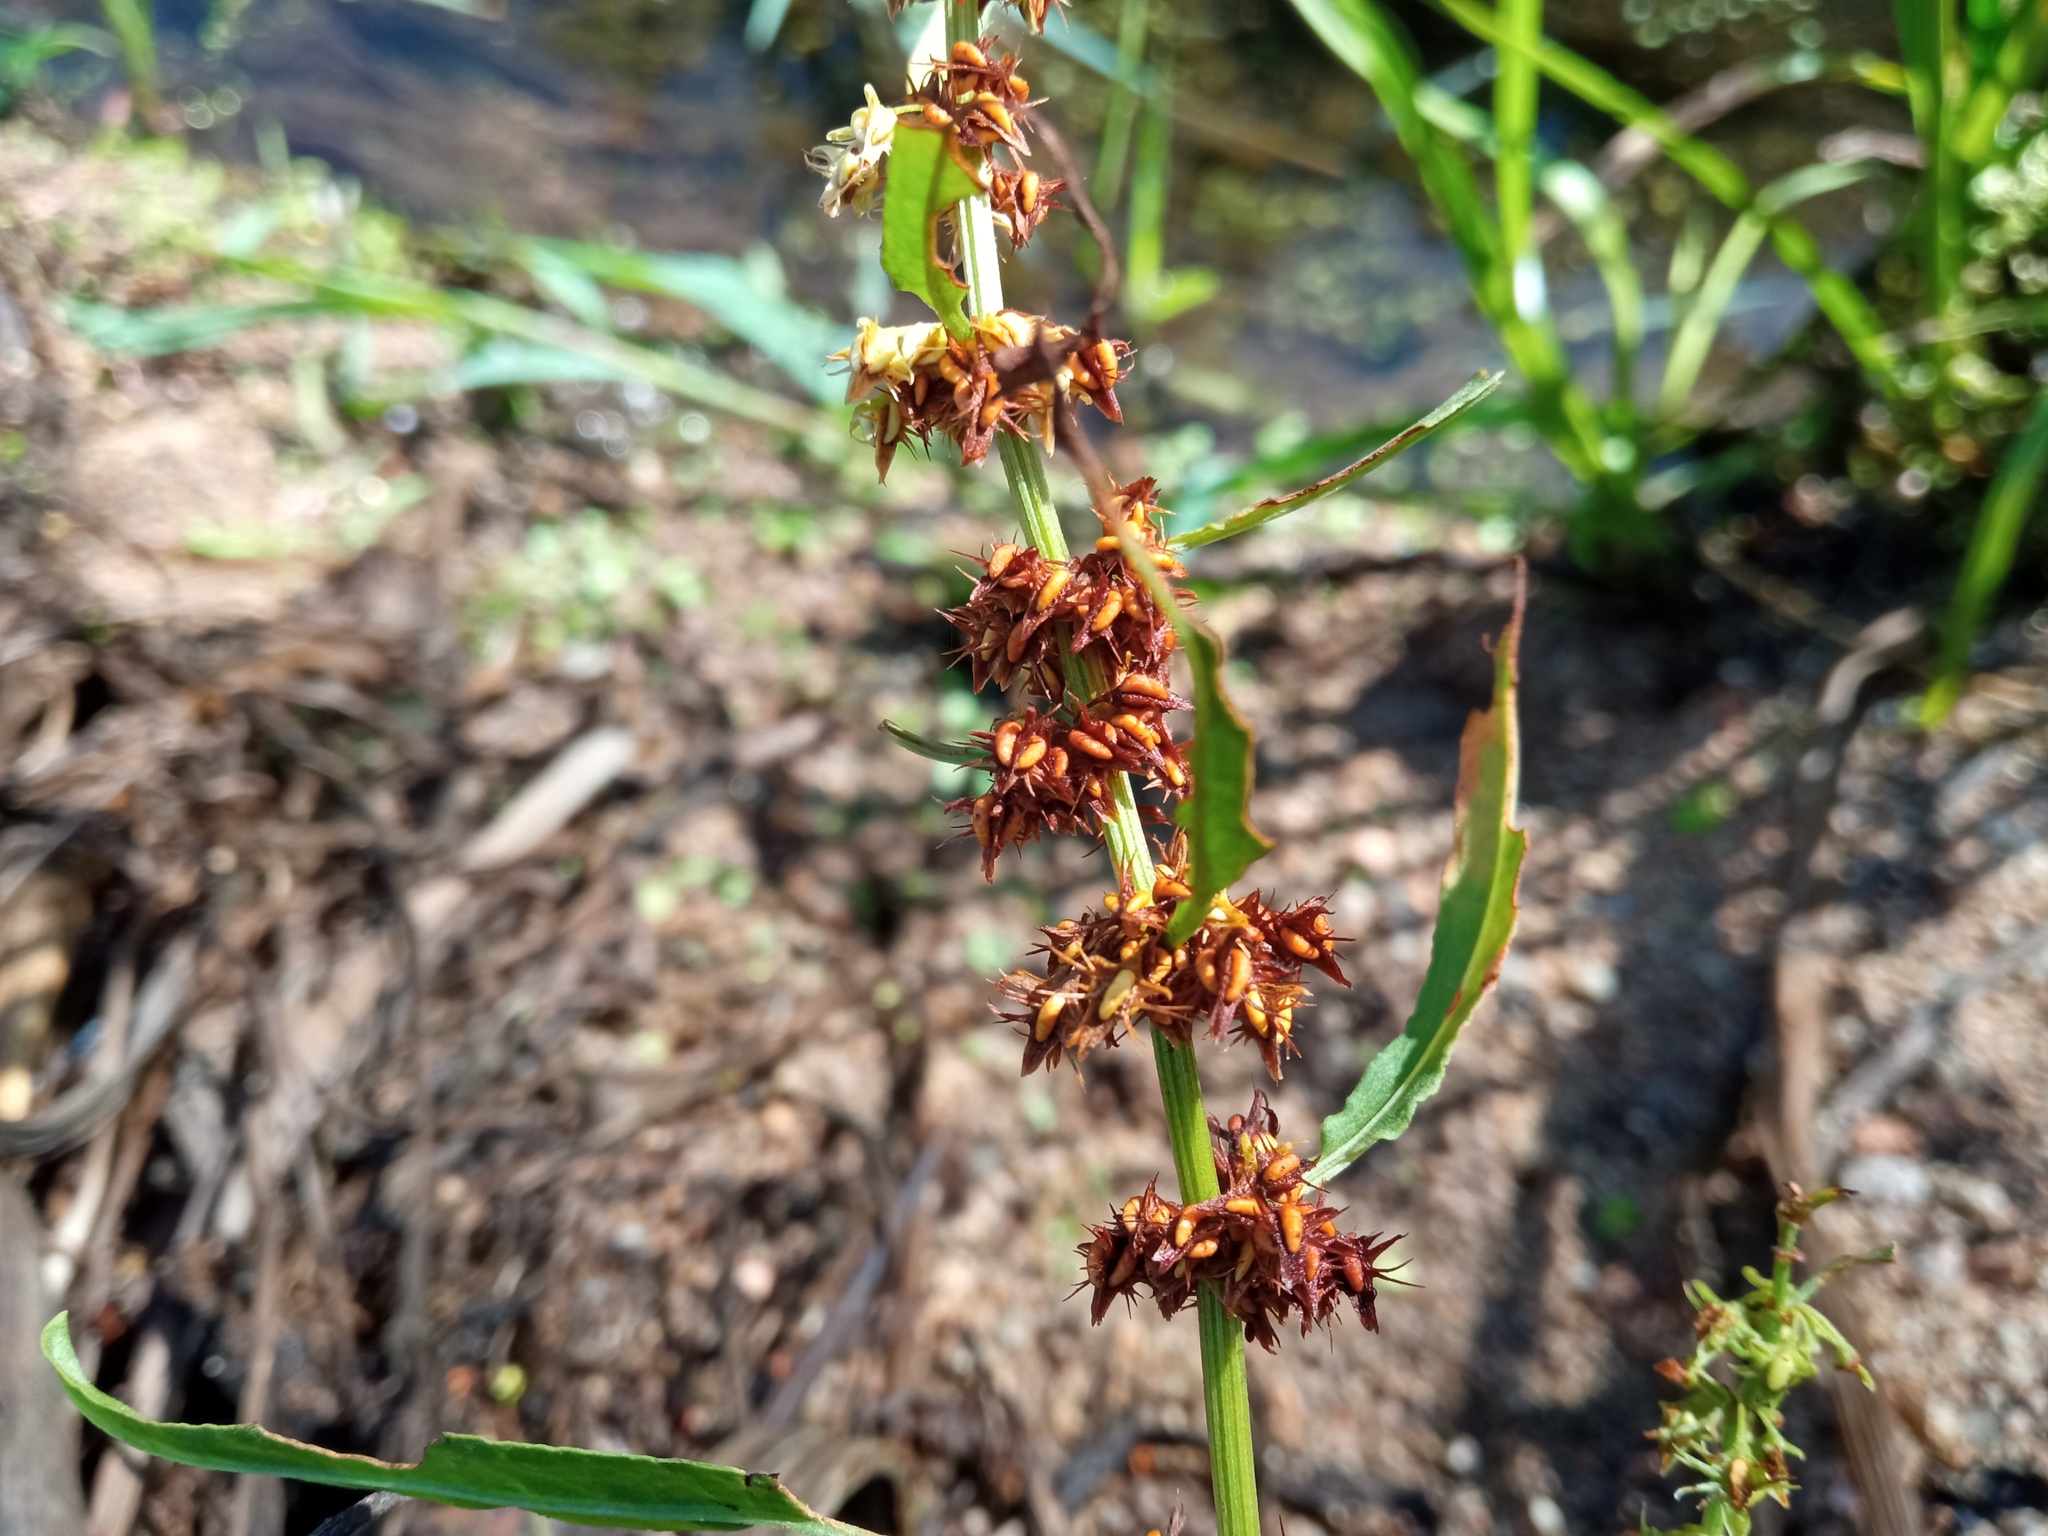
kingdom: Plantae
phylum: Tracheophyta
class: Magnoliopsida
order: Caryophyllales
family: Polygonaceae
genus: Rumex
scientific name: Rumex palustris
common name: Marsh dock
